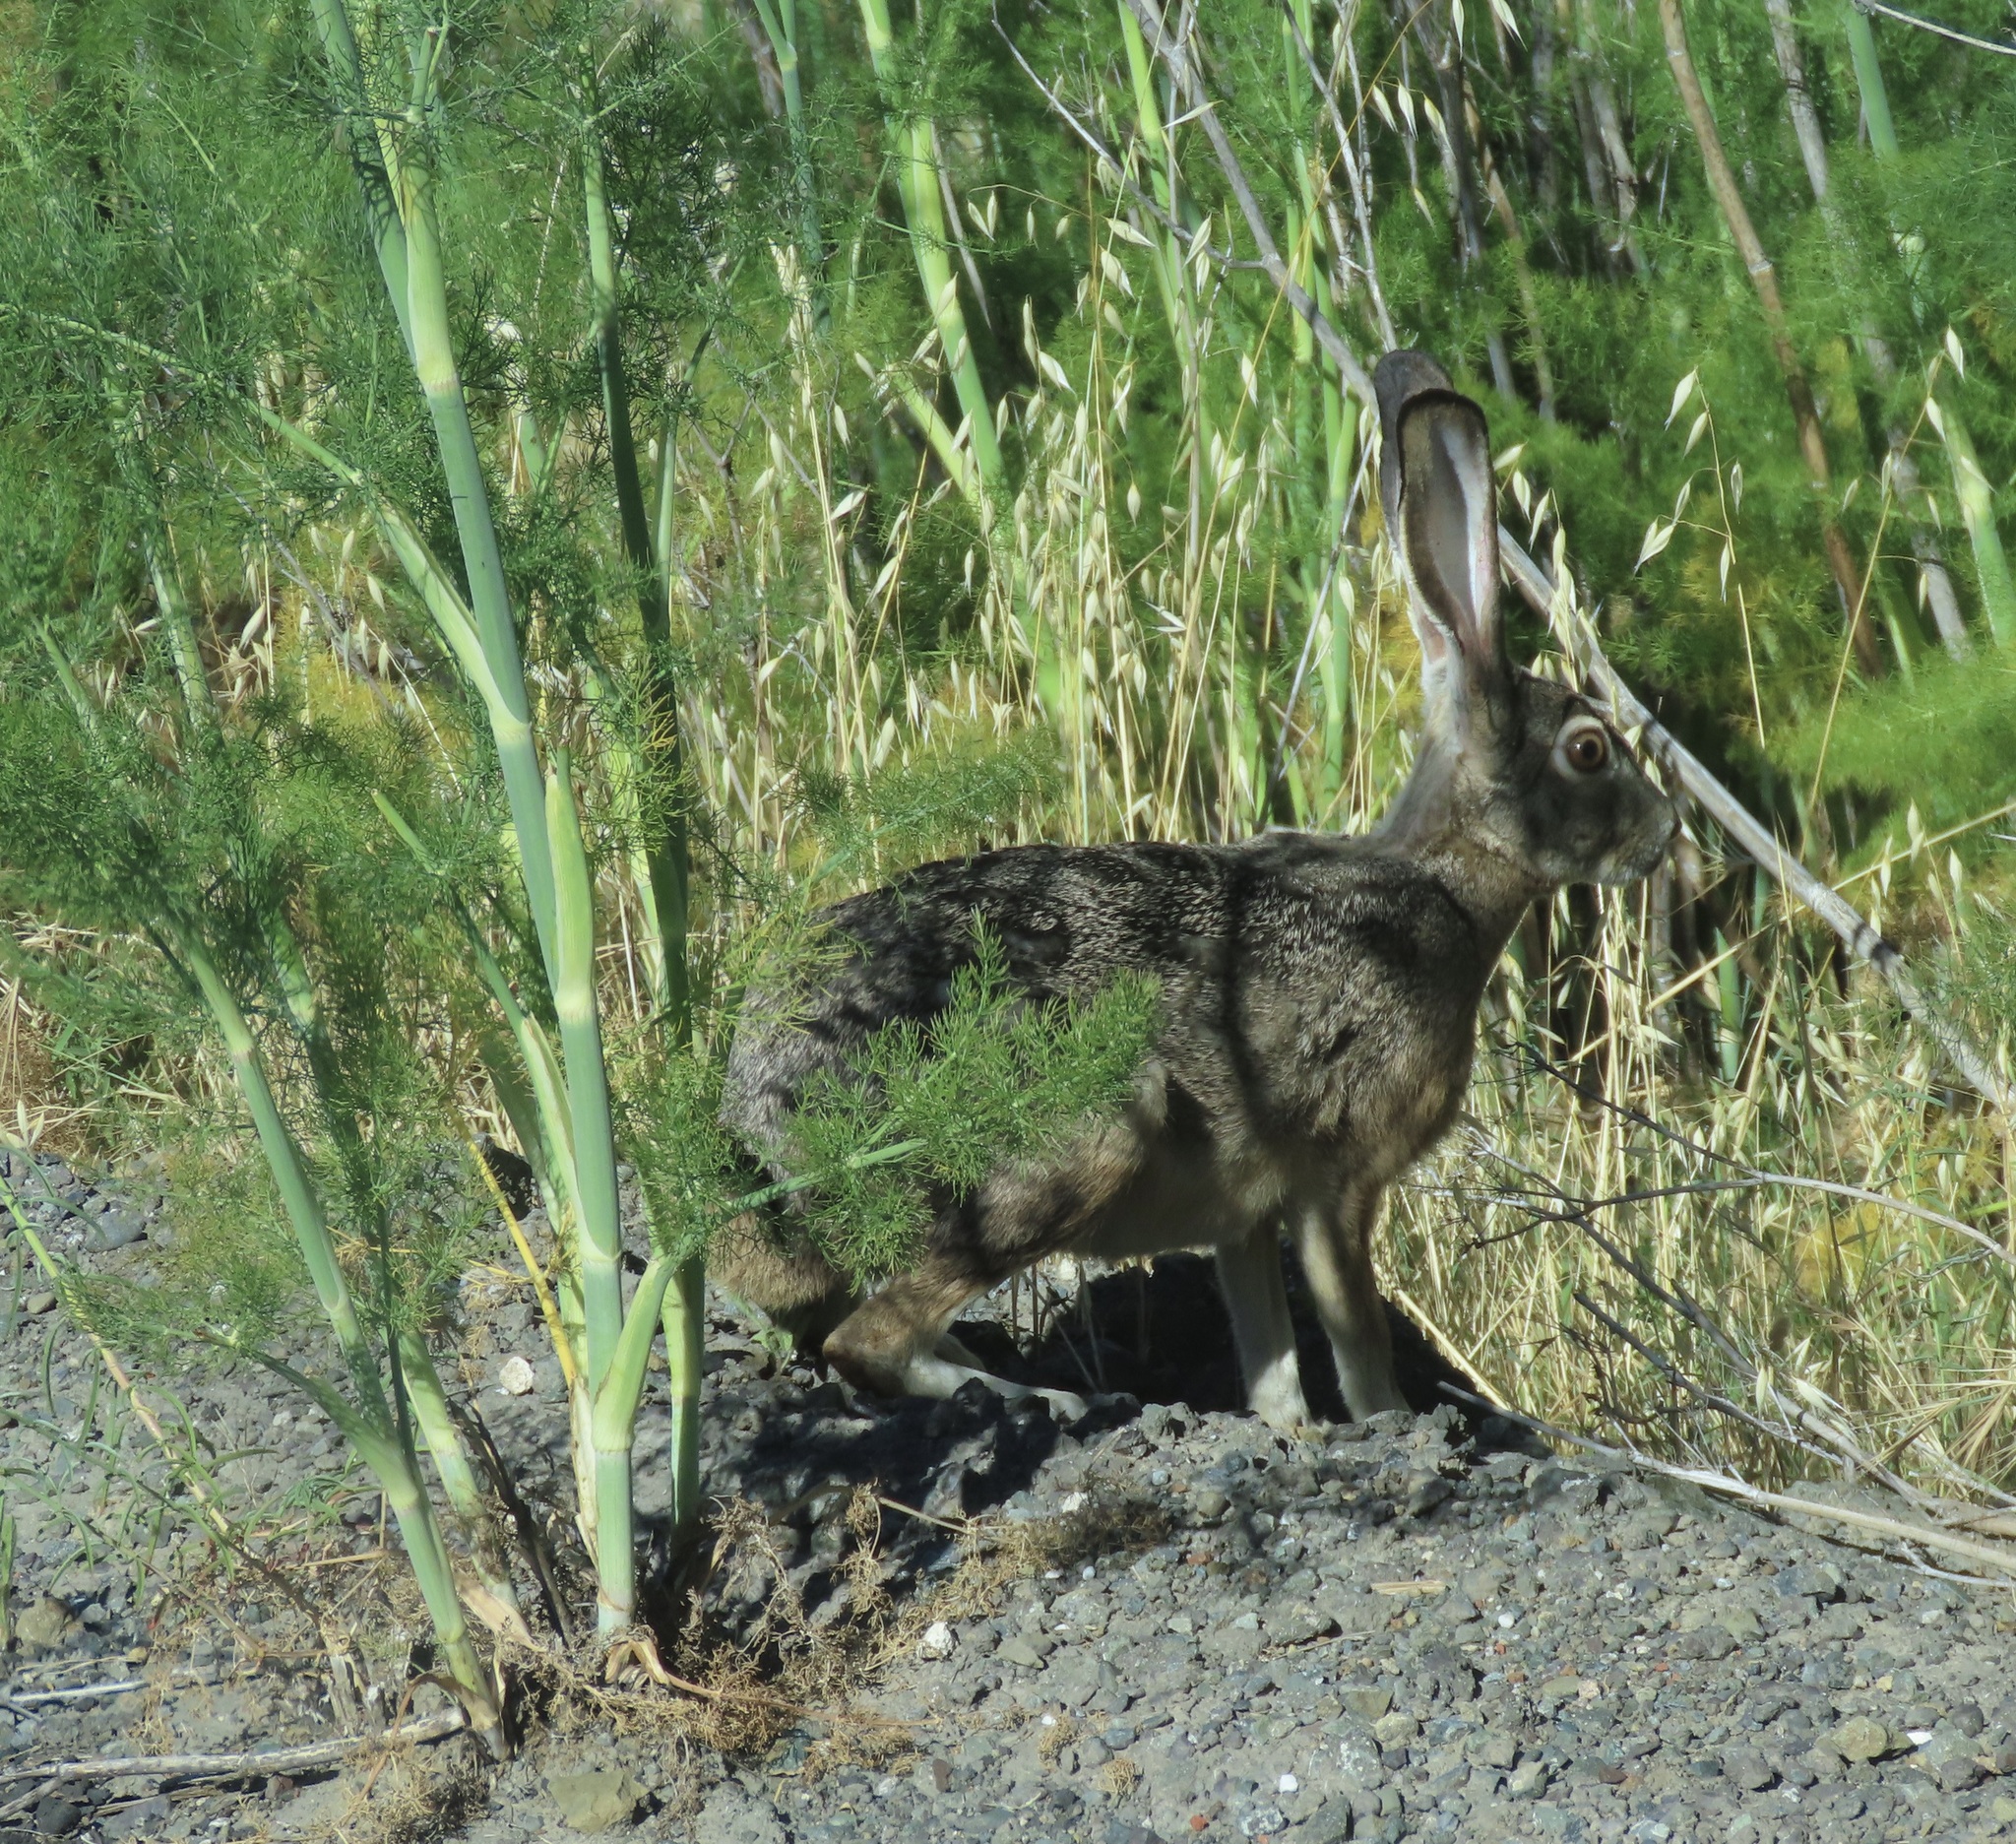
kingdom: Animalia
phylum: Chordata
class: Mammalia
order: Lagomorpha
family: Leporidae
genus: Lepus
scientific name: Lepus californicus
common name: Black-tailed jackrabbit
